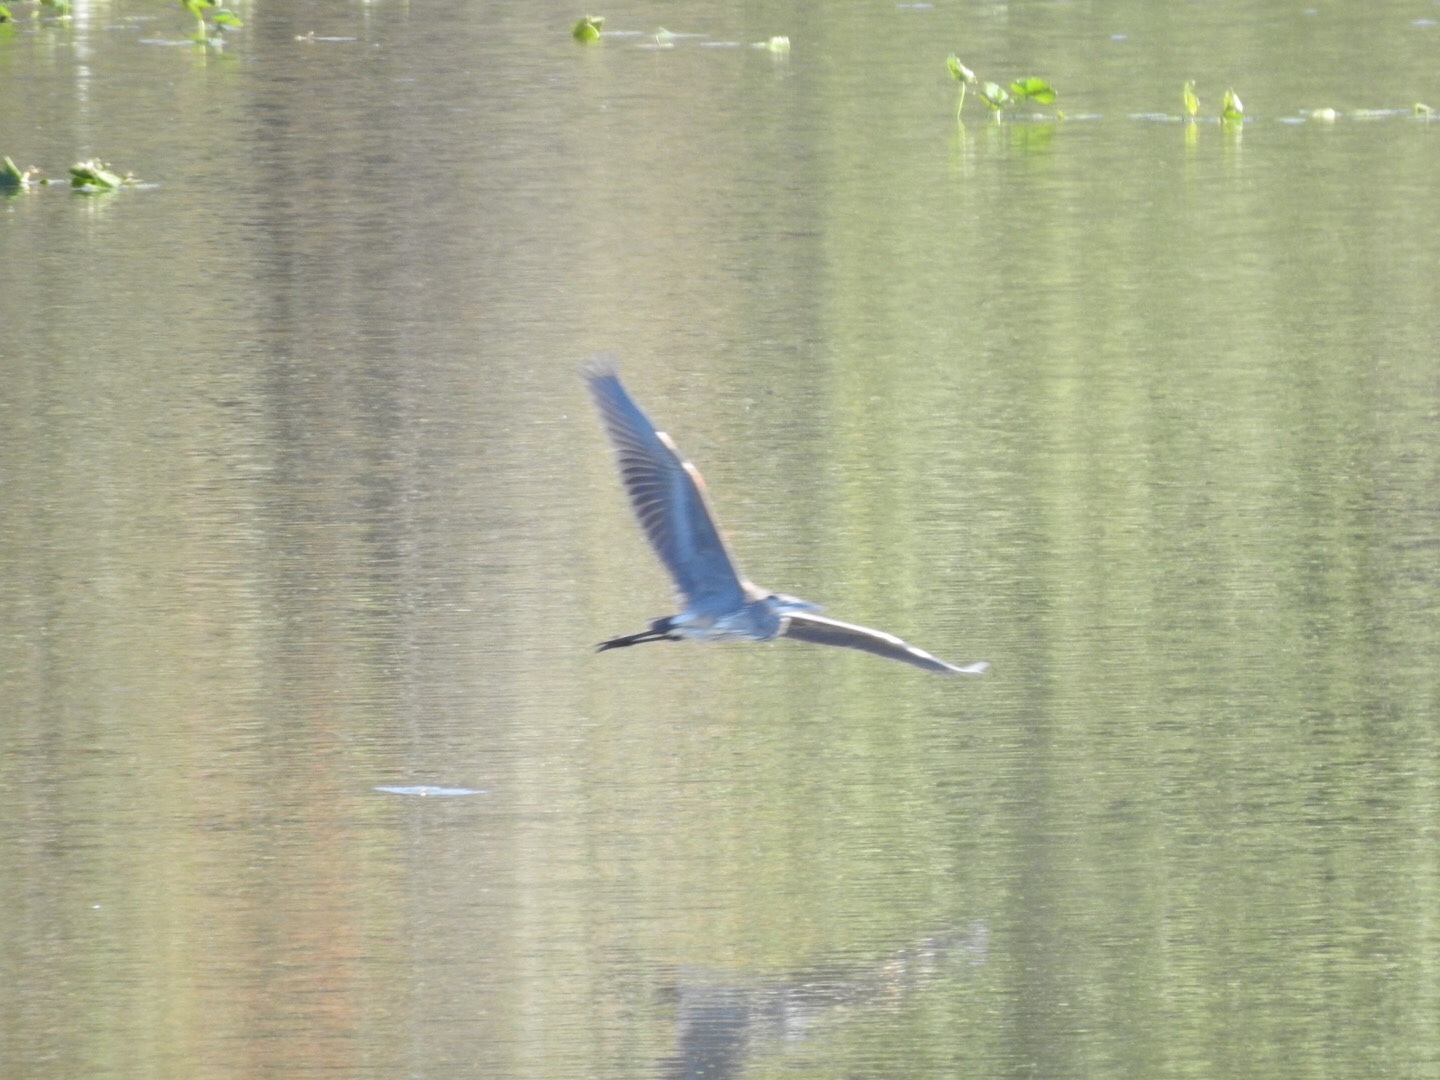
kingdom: Animalia
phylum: Chordata
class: Aves
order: Pelecaniformes
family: Ardeidae
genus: Ardea
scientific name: Ardea herodias
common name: Great blue heron
